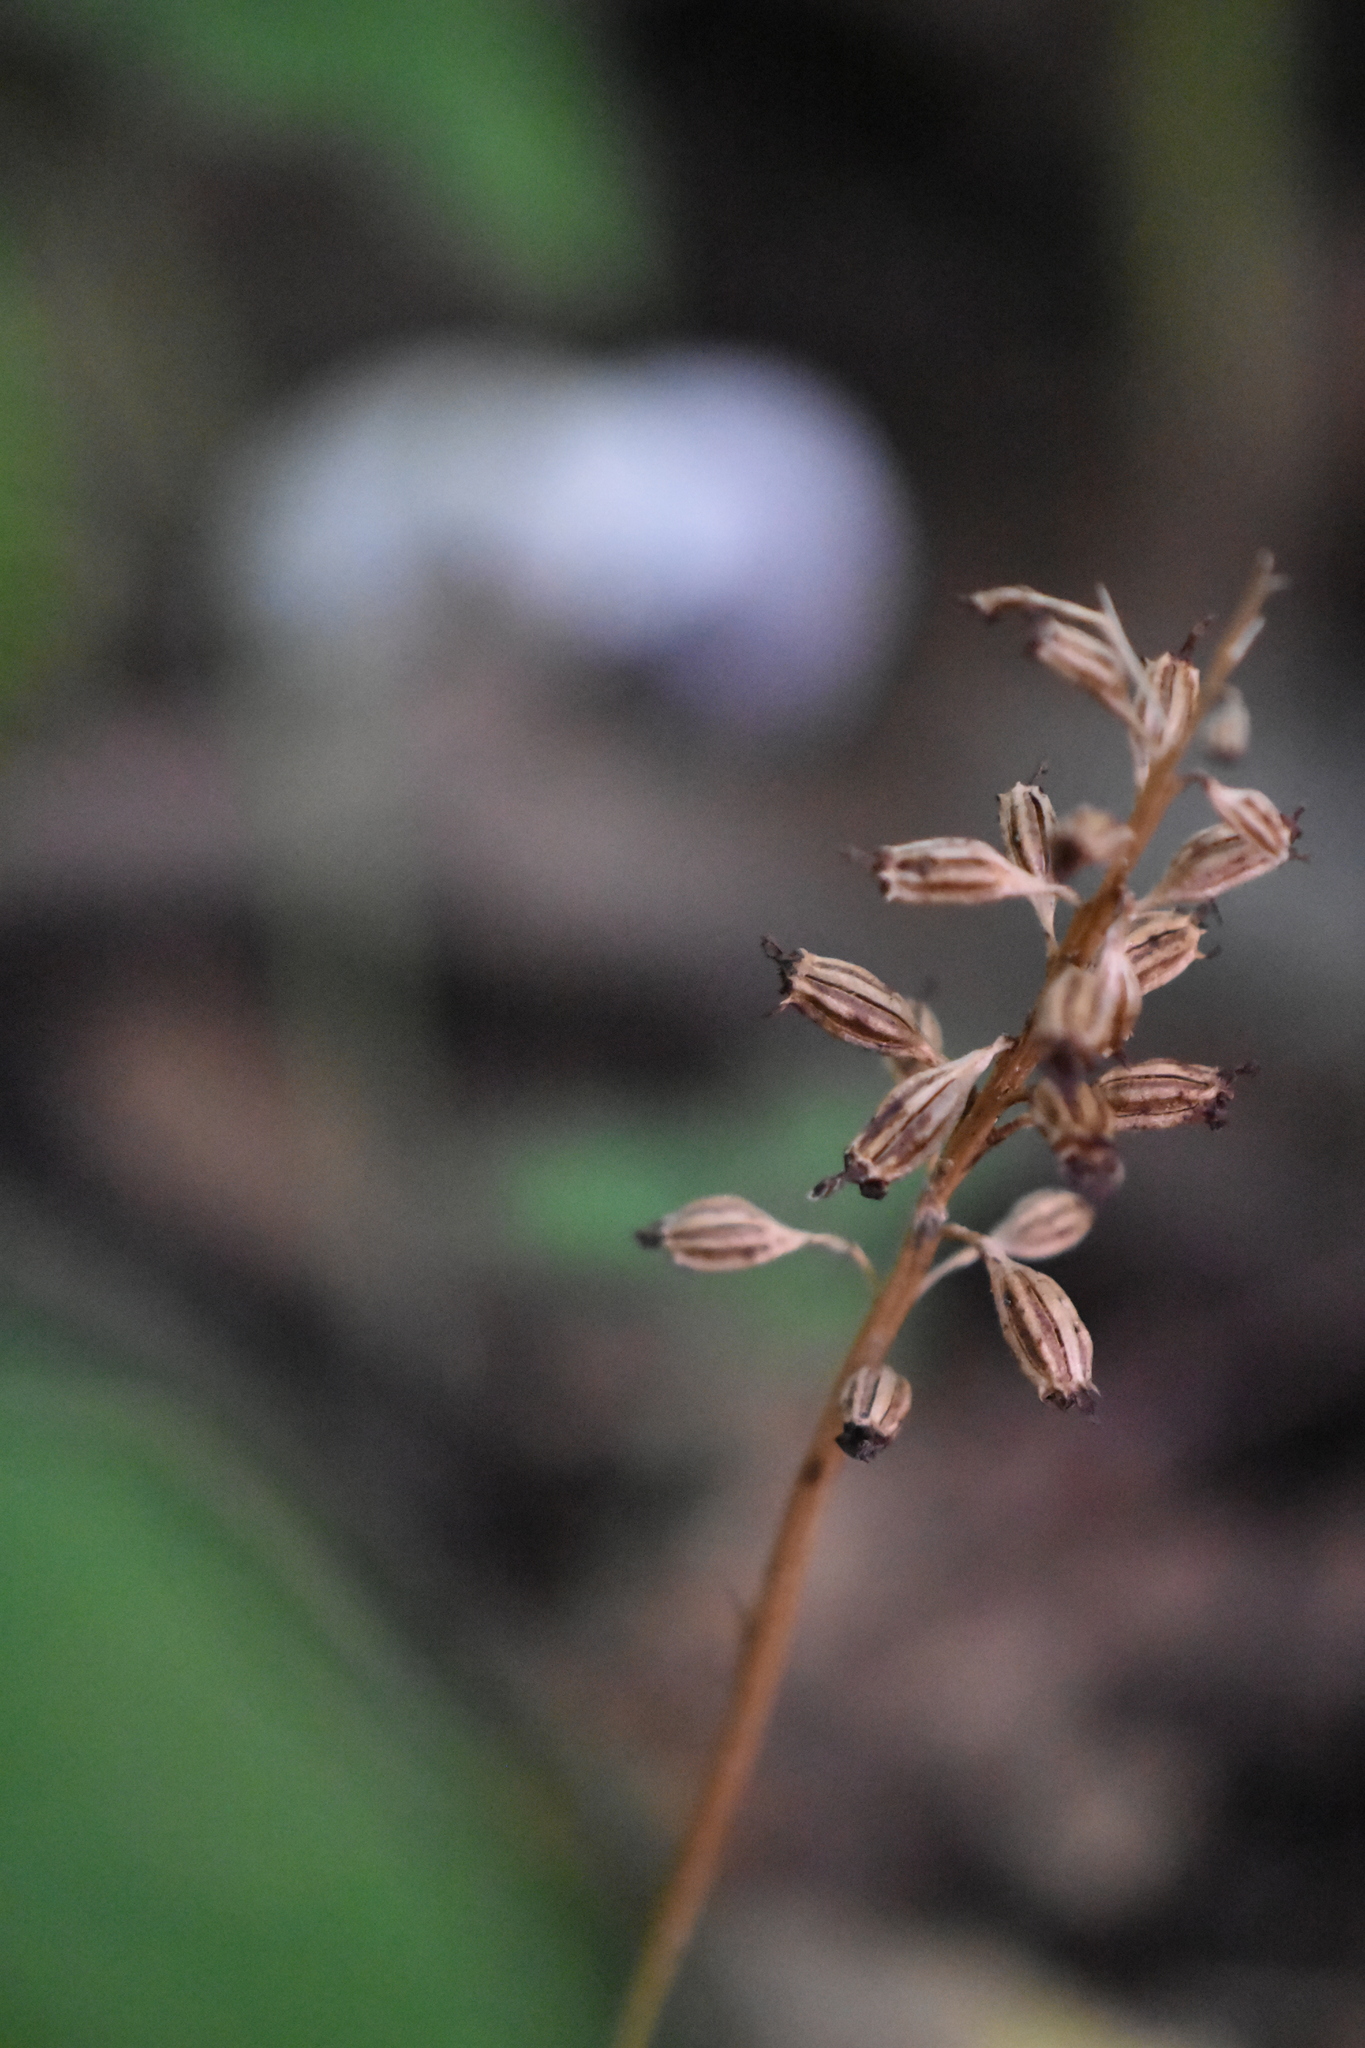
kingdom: Plantae
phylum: Tracheophyta
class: Liliopsida
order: Asparagales
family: Orchidaceae
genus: Neottia
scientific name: Neottia nidus-avis
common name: Bird's-nest orchid
